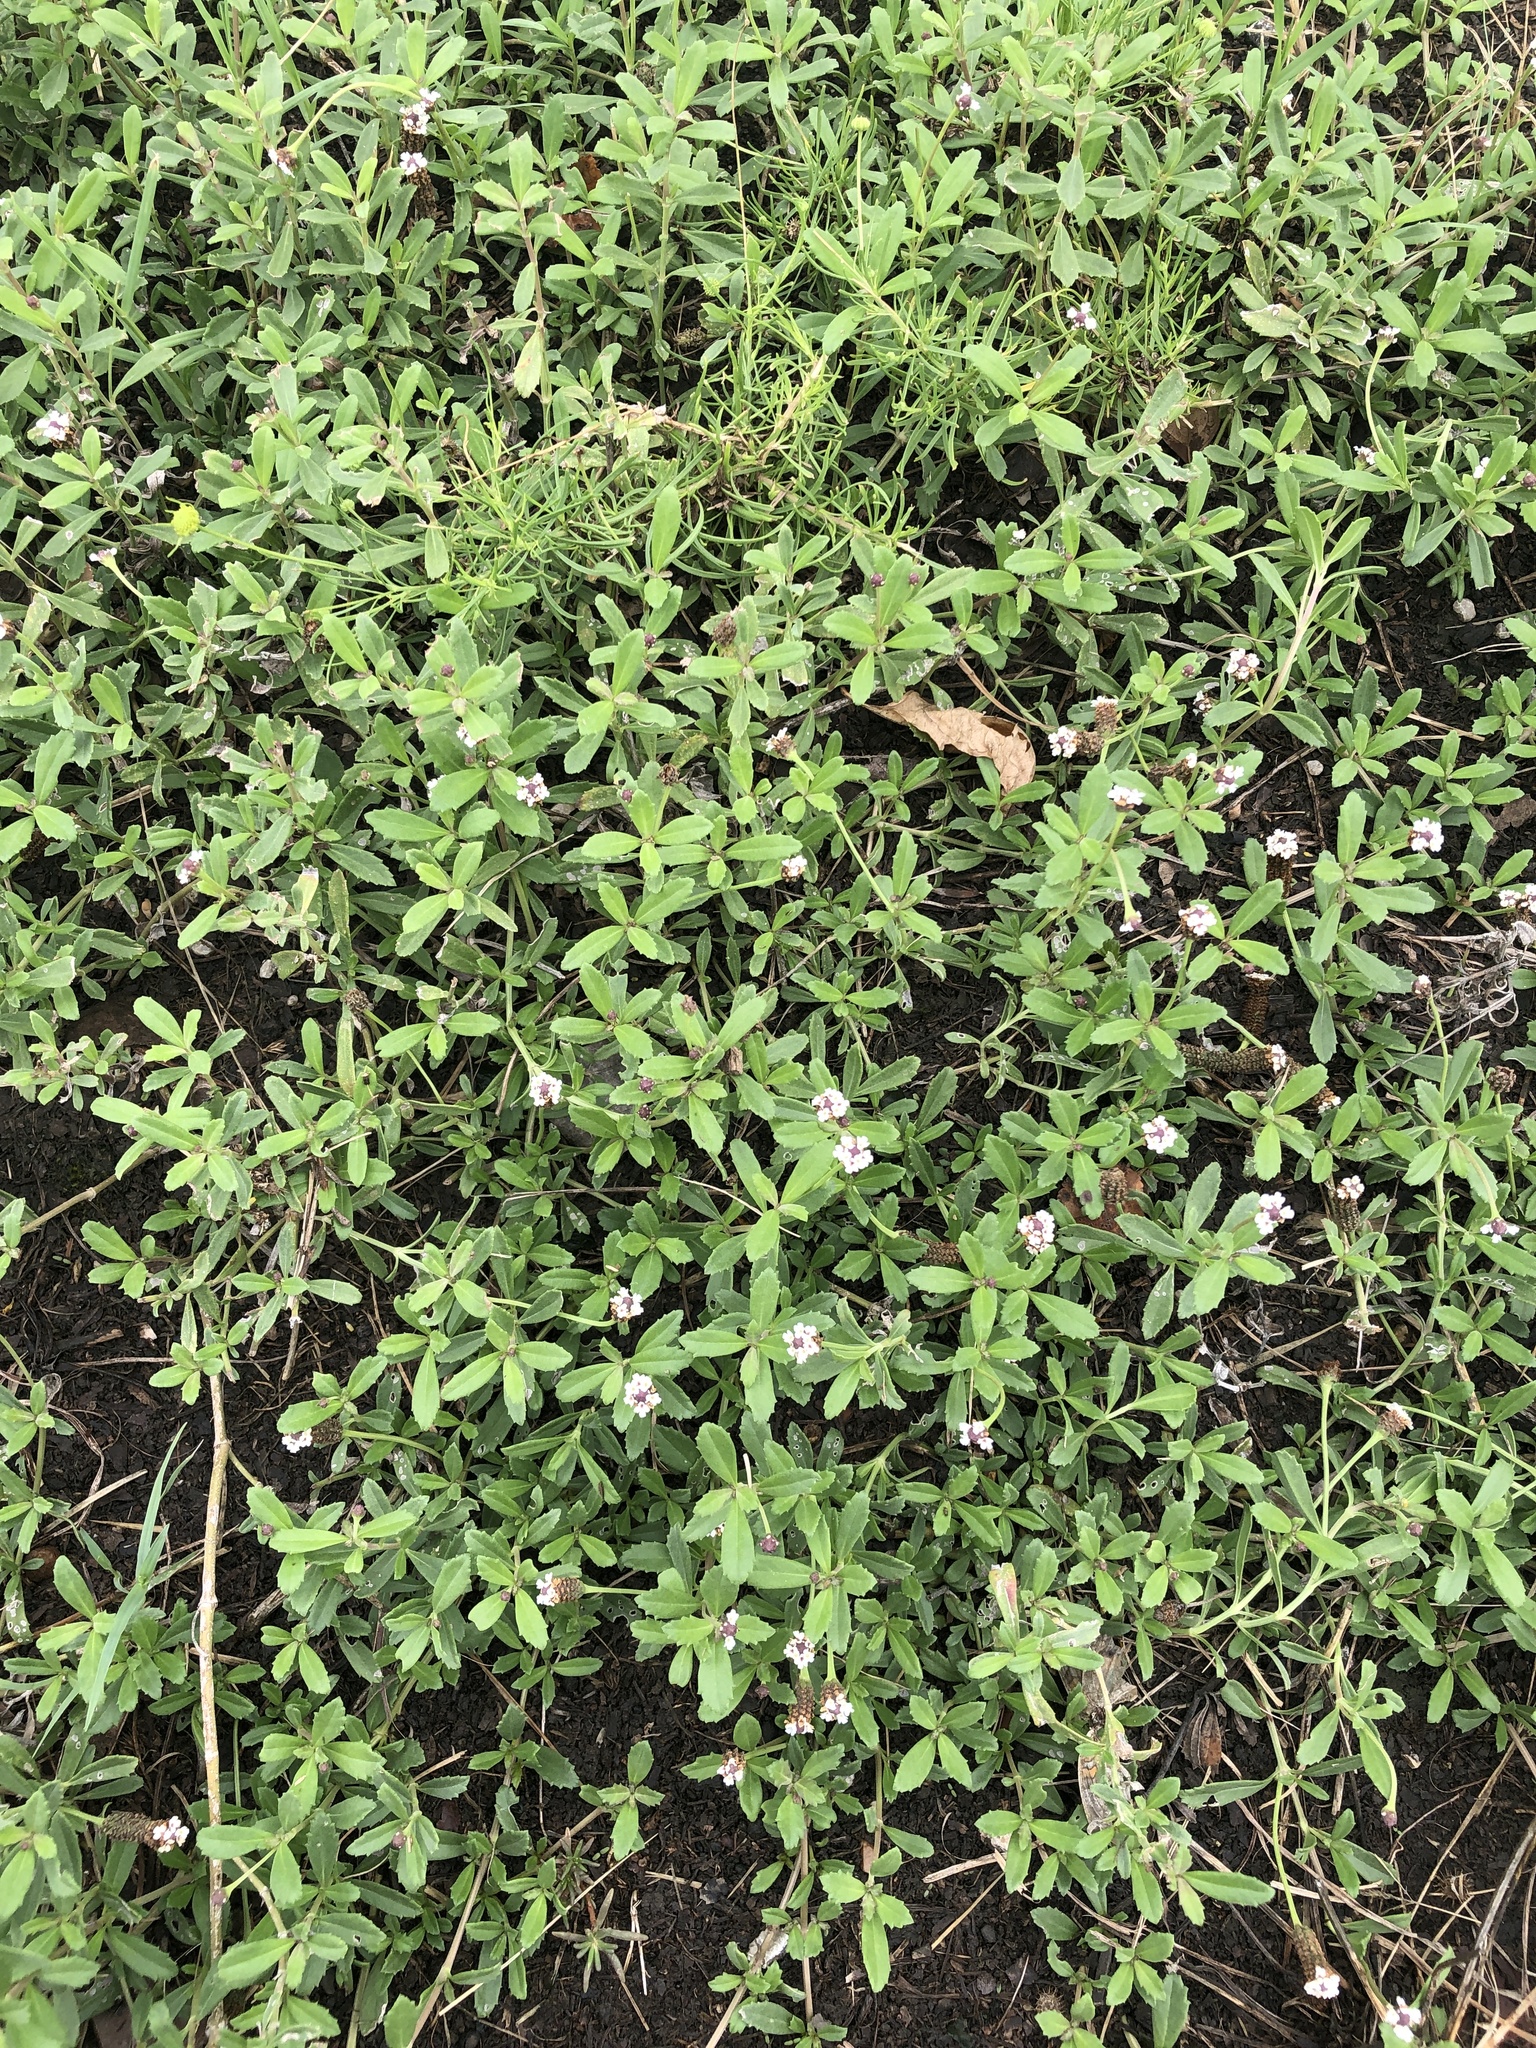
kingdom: Plantae
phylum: Tracheophyta
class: Magnoliopsida
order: Lamiales
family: Verbenaceae
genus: Phyla
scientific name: Phyla nodiflora
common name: Frogfruit
